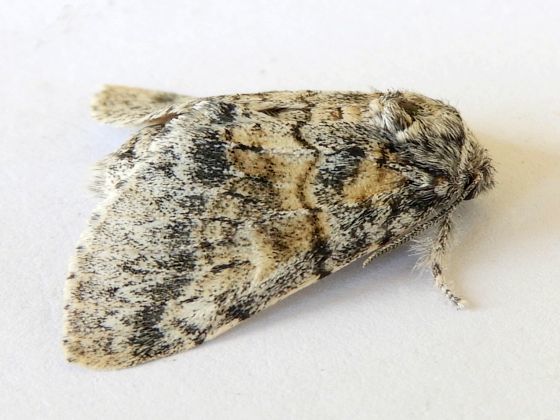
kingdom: Animalia
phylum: Arthropoda
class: Insecta
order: Lepidoptera
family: Notodontidae
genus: Gluphisia
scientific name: Gluphisia wrightii
